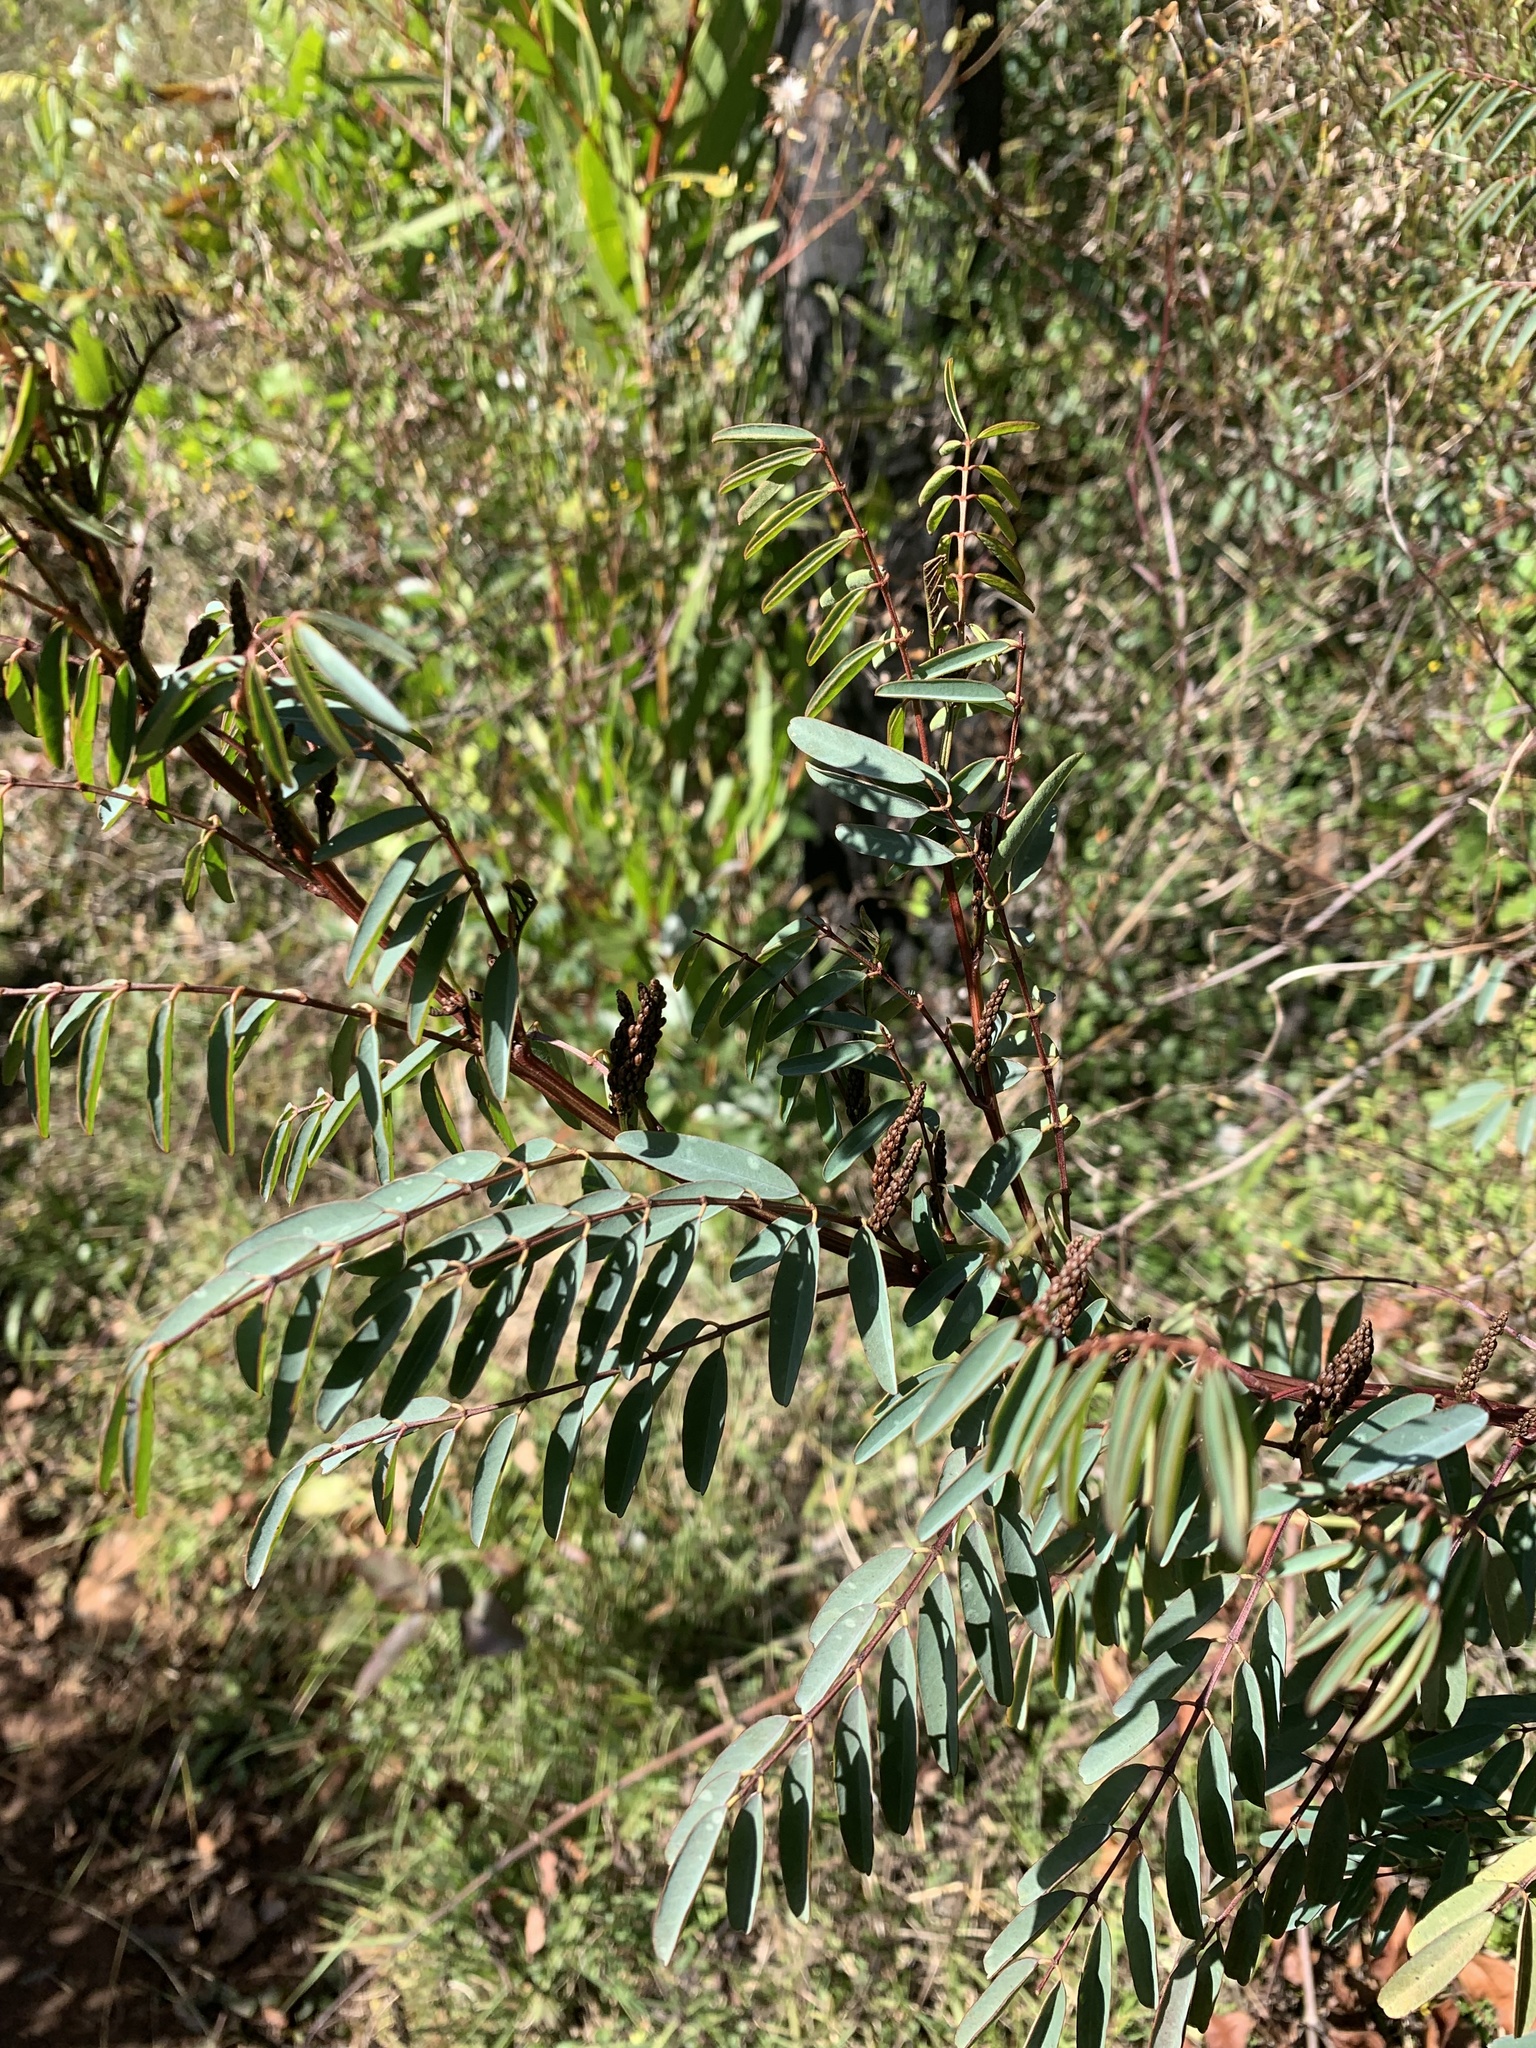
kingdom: Plantae
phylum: Tracheophyta
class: Magnoliopsida
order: Fabales
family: Fabaceae
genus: Indigofera
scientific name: Indigofera australis
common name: Australian indigo
